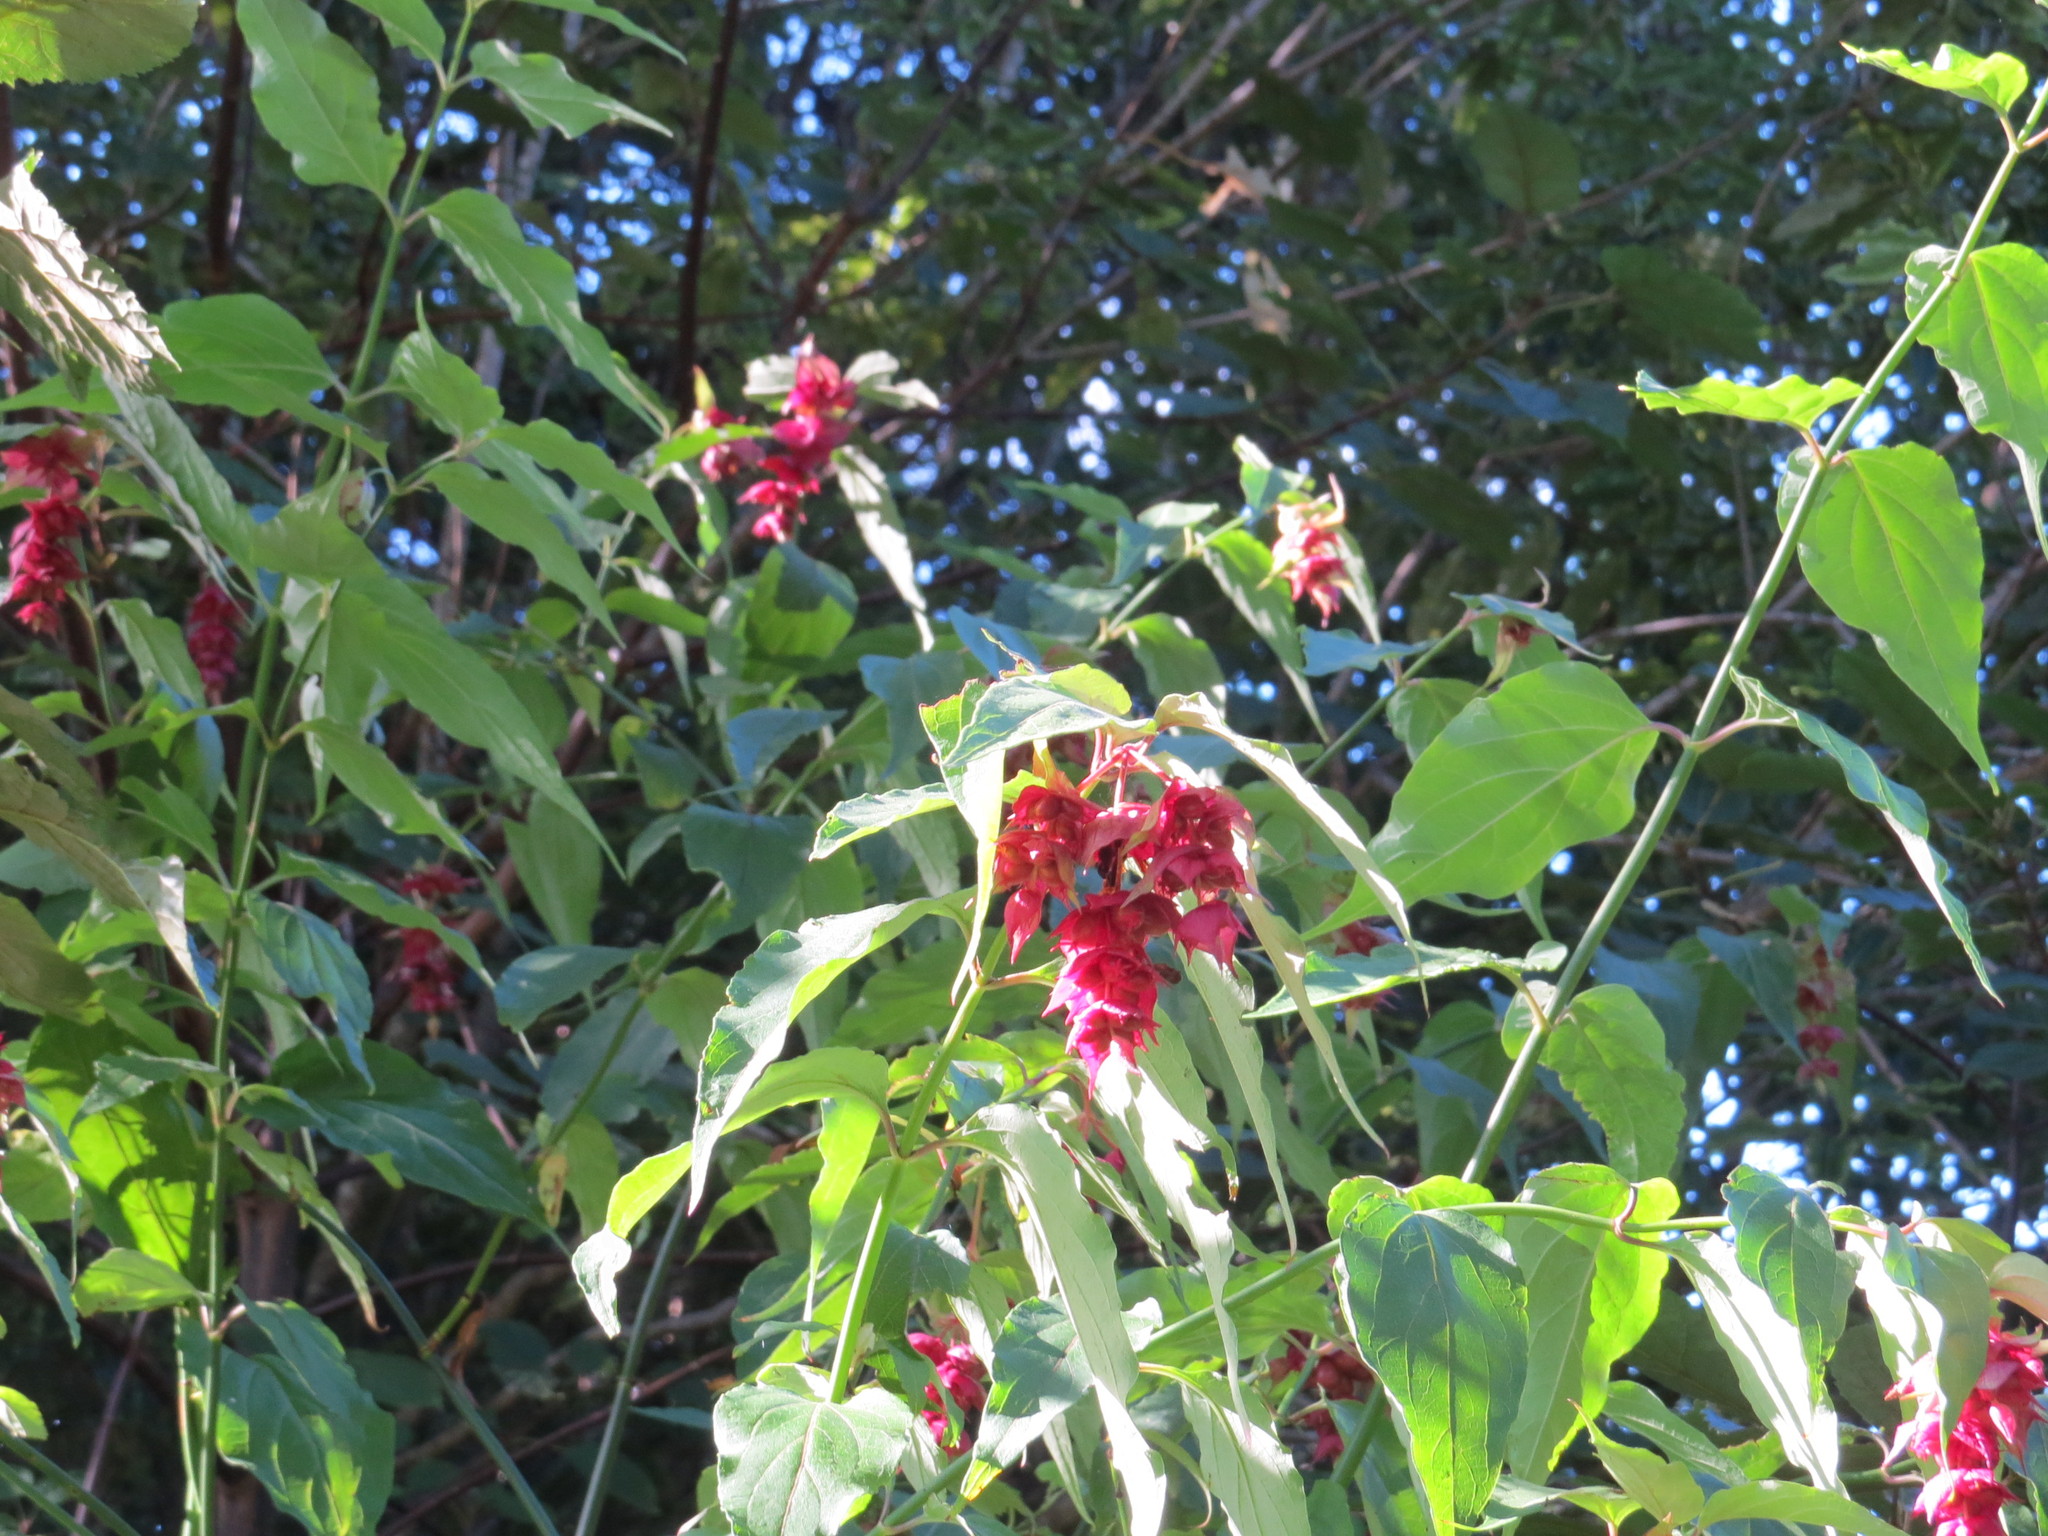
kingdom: Plantae
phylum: Tracheophyta
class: Magnoliopsida
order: Dipsacales
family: Caprifoliaceae
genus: Leycesteria
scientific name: Leycesteria formosa
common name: Himalayan honeysuckle
